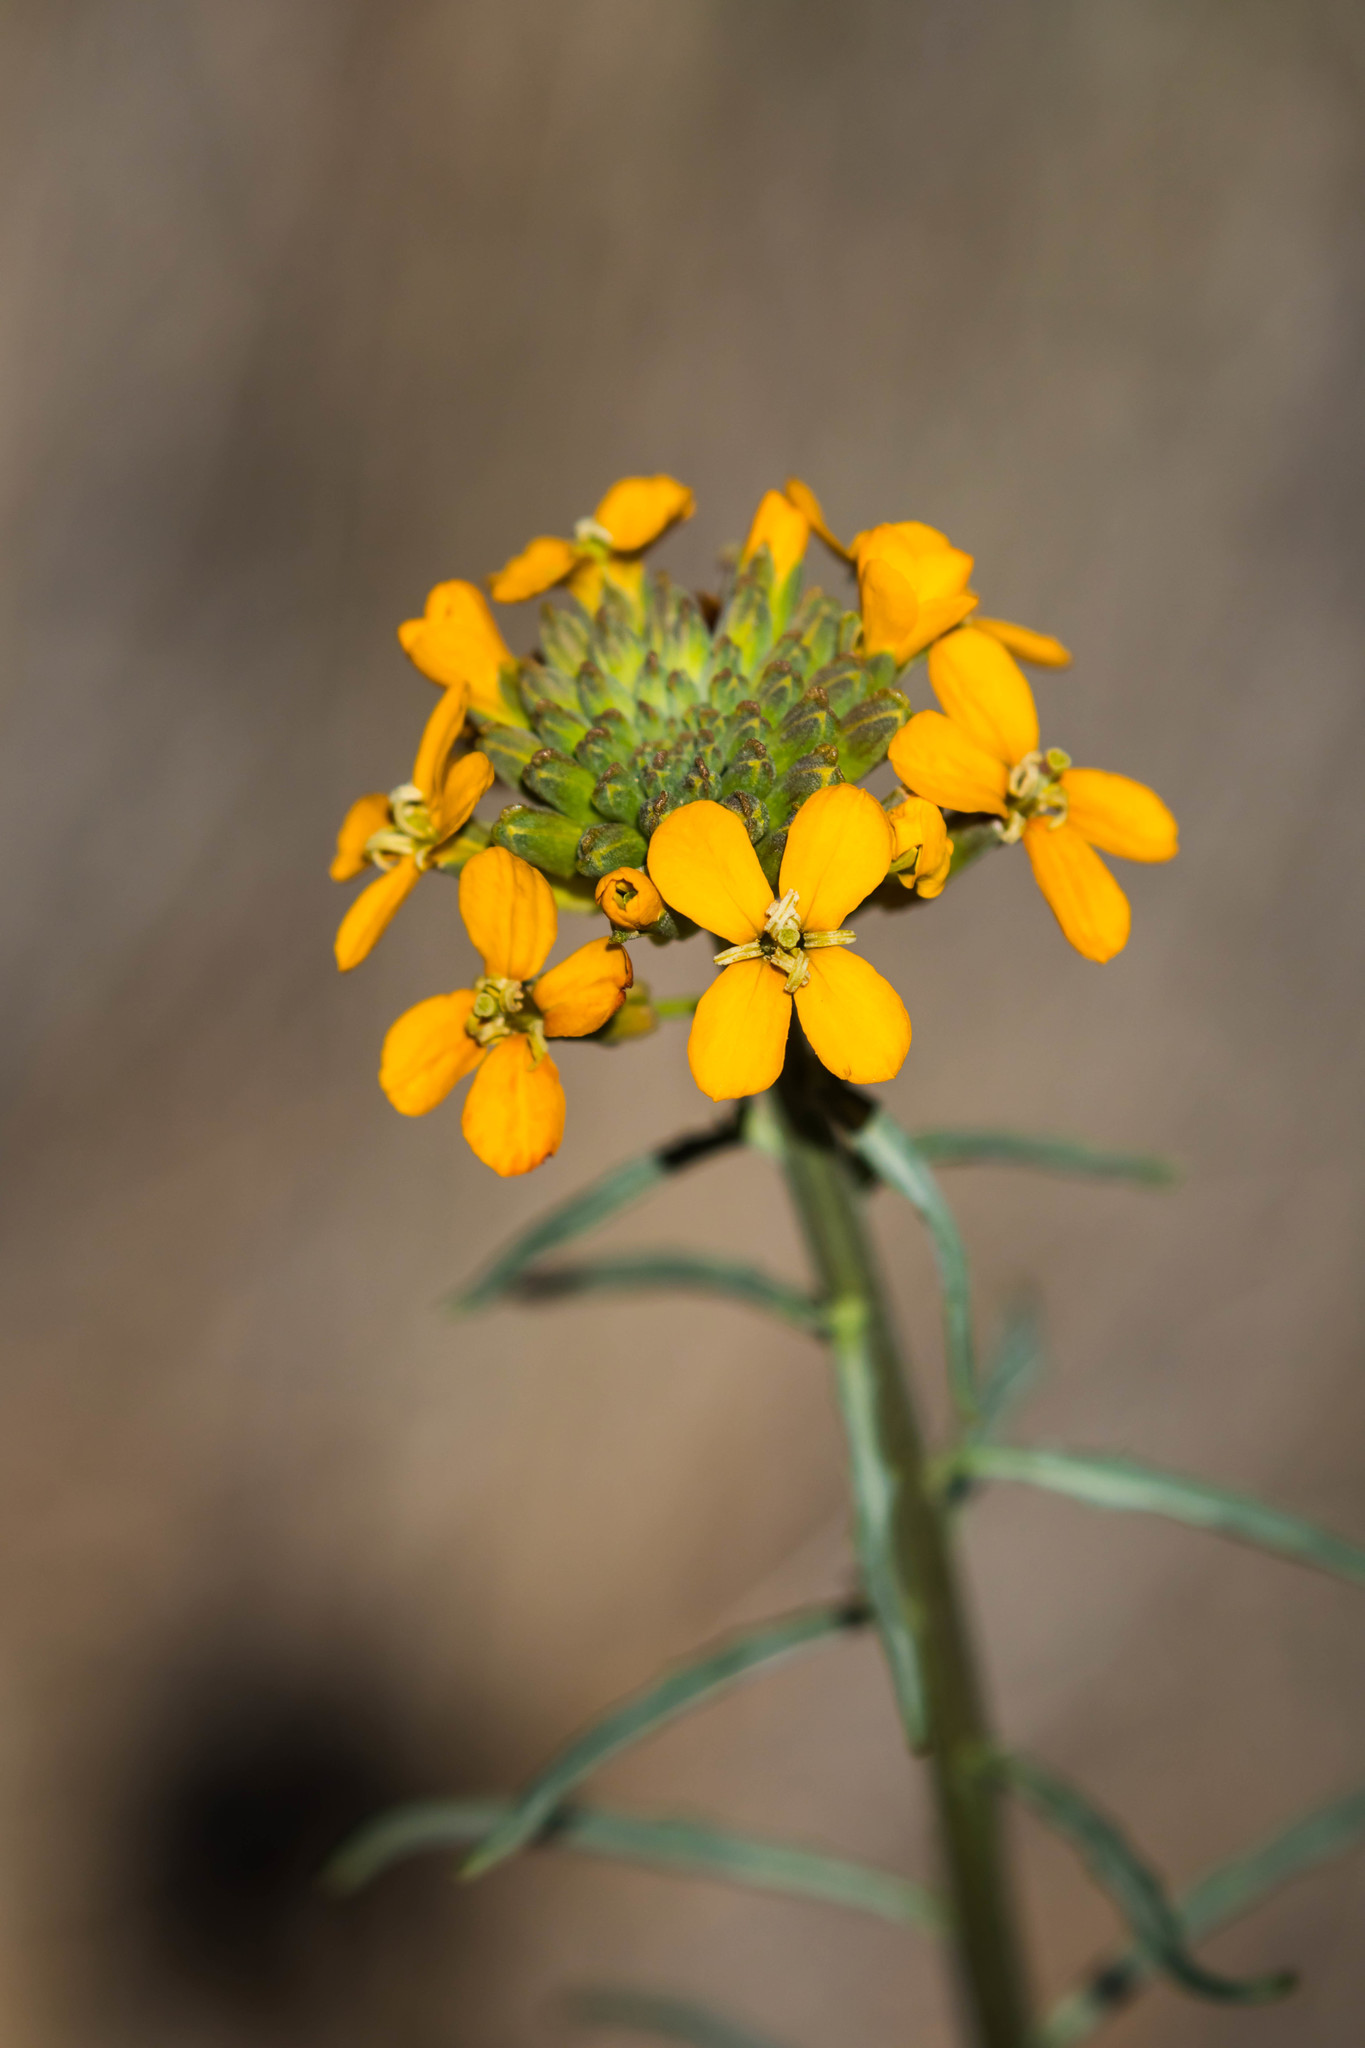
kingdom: Plantae
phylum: Tracheophyta
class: Magnoliopsida
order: Brassicales
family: Brassicaceae
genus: Erysimum
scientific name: Erysimum capitatum
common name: Western wallflower
